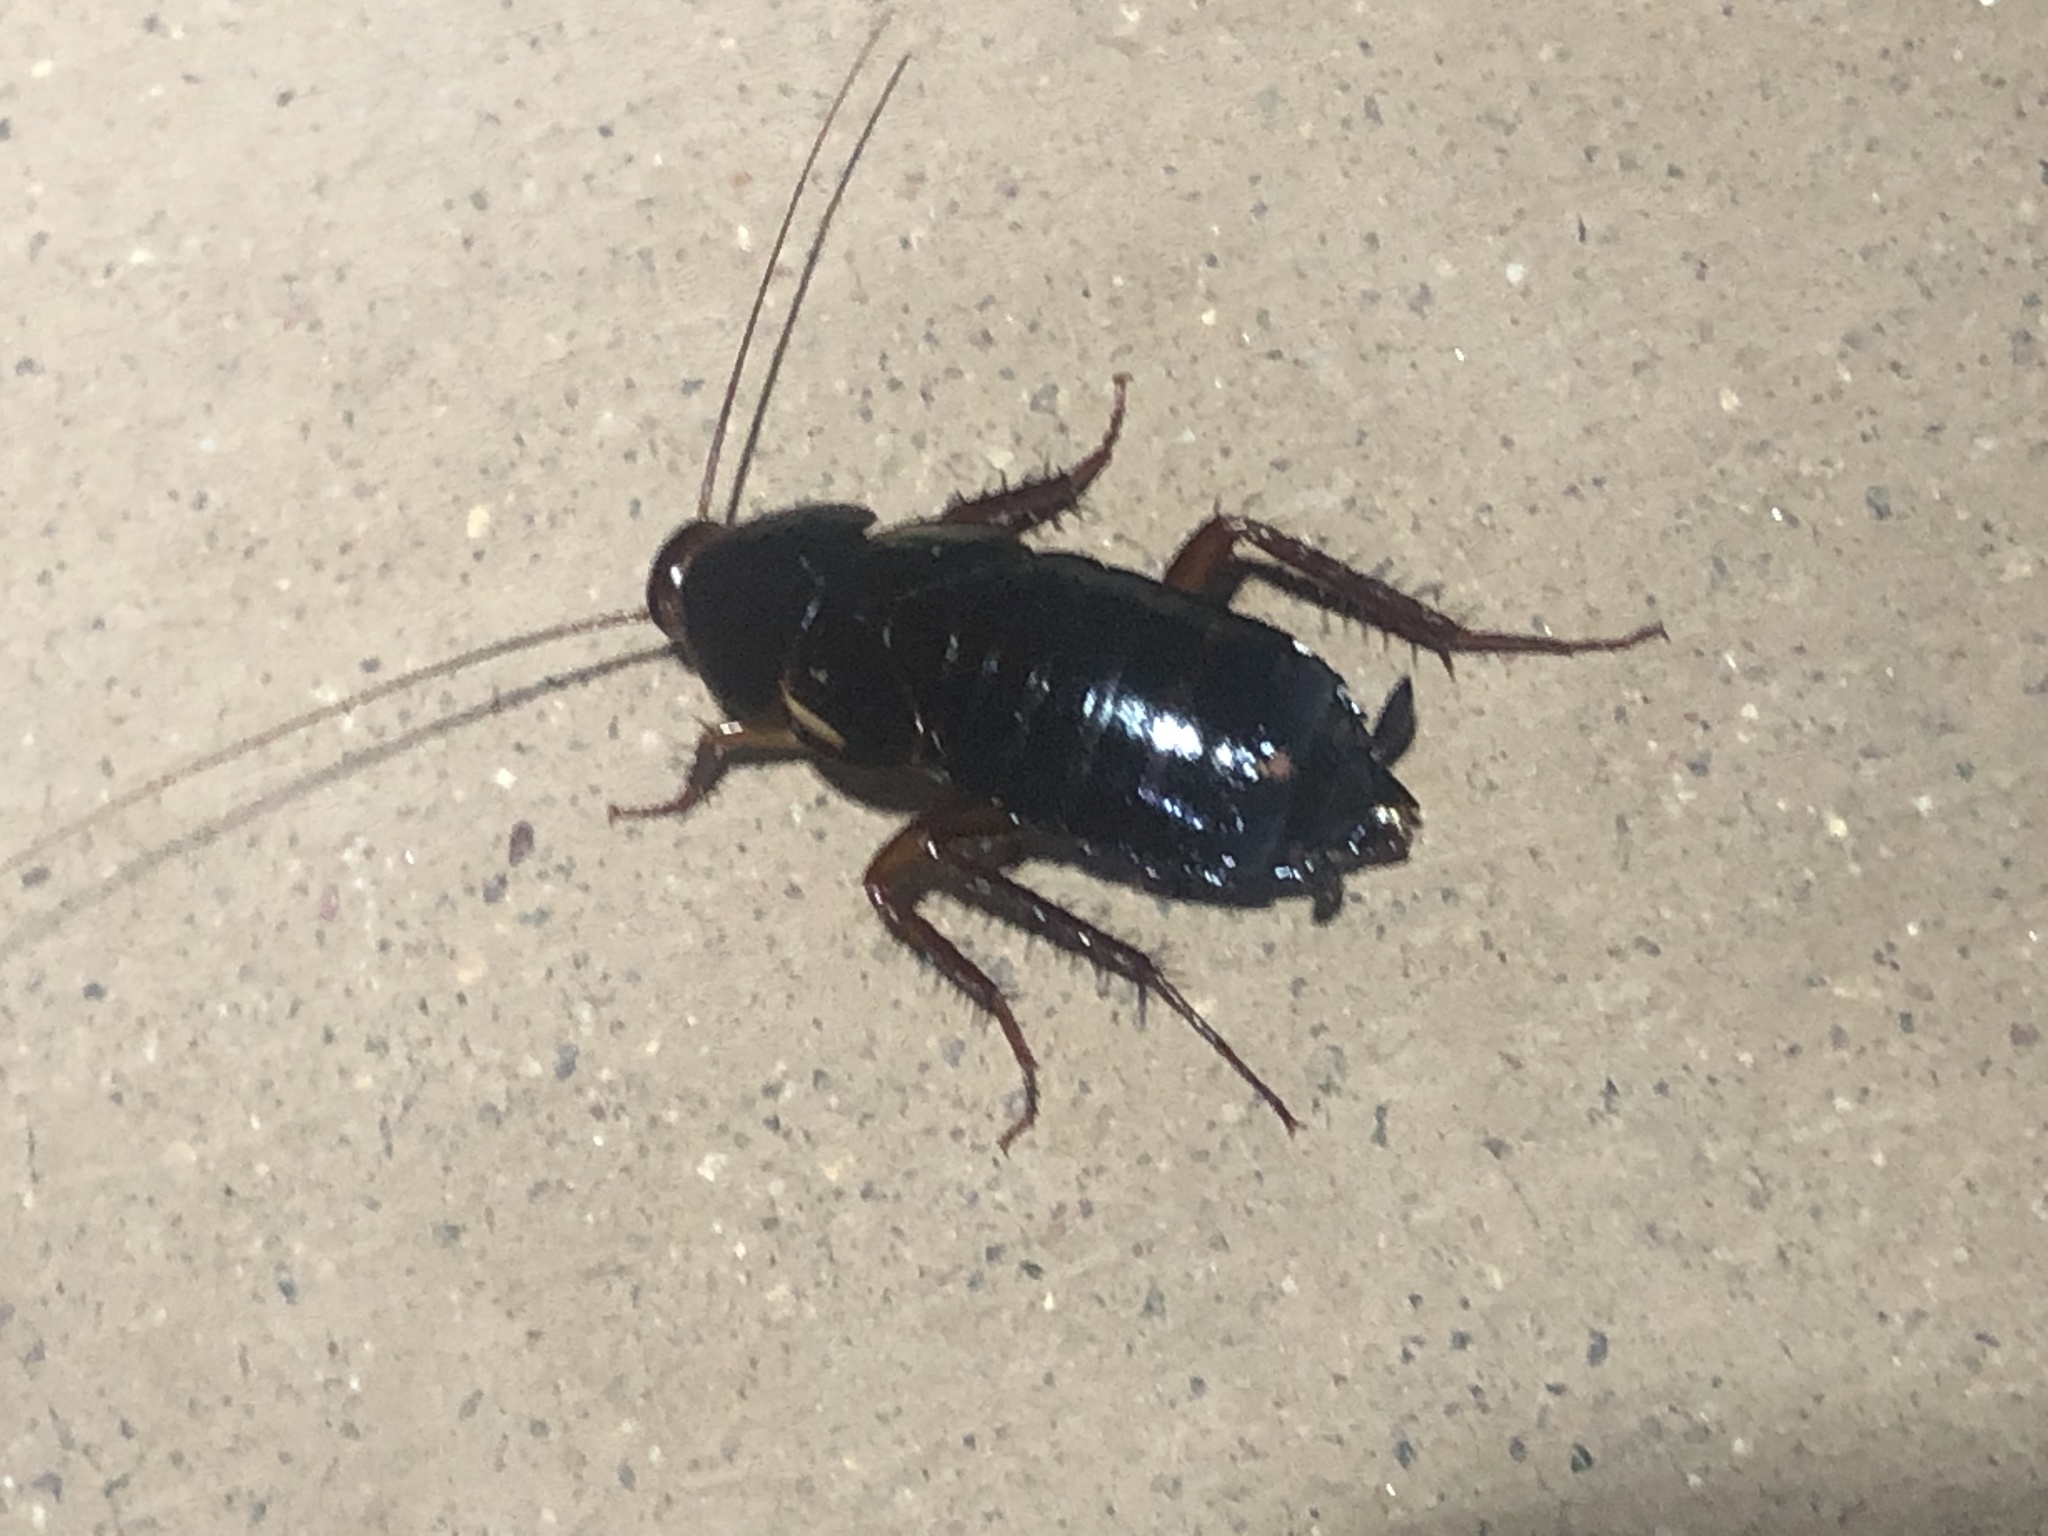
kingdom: Animalia
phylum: Arthropoda
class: Insecta
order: Blattodea
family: Blattidae
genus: Periplaneta
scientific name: Periplaneta lateralis
